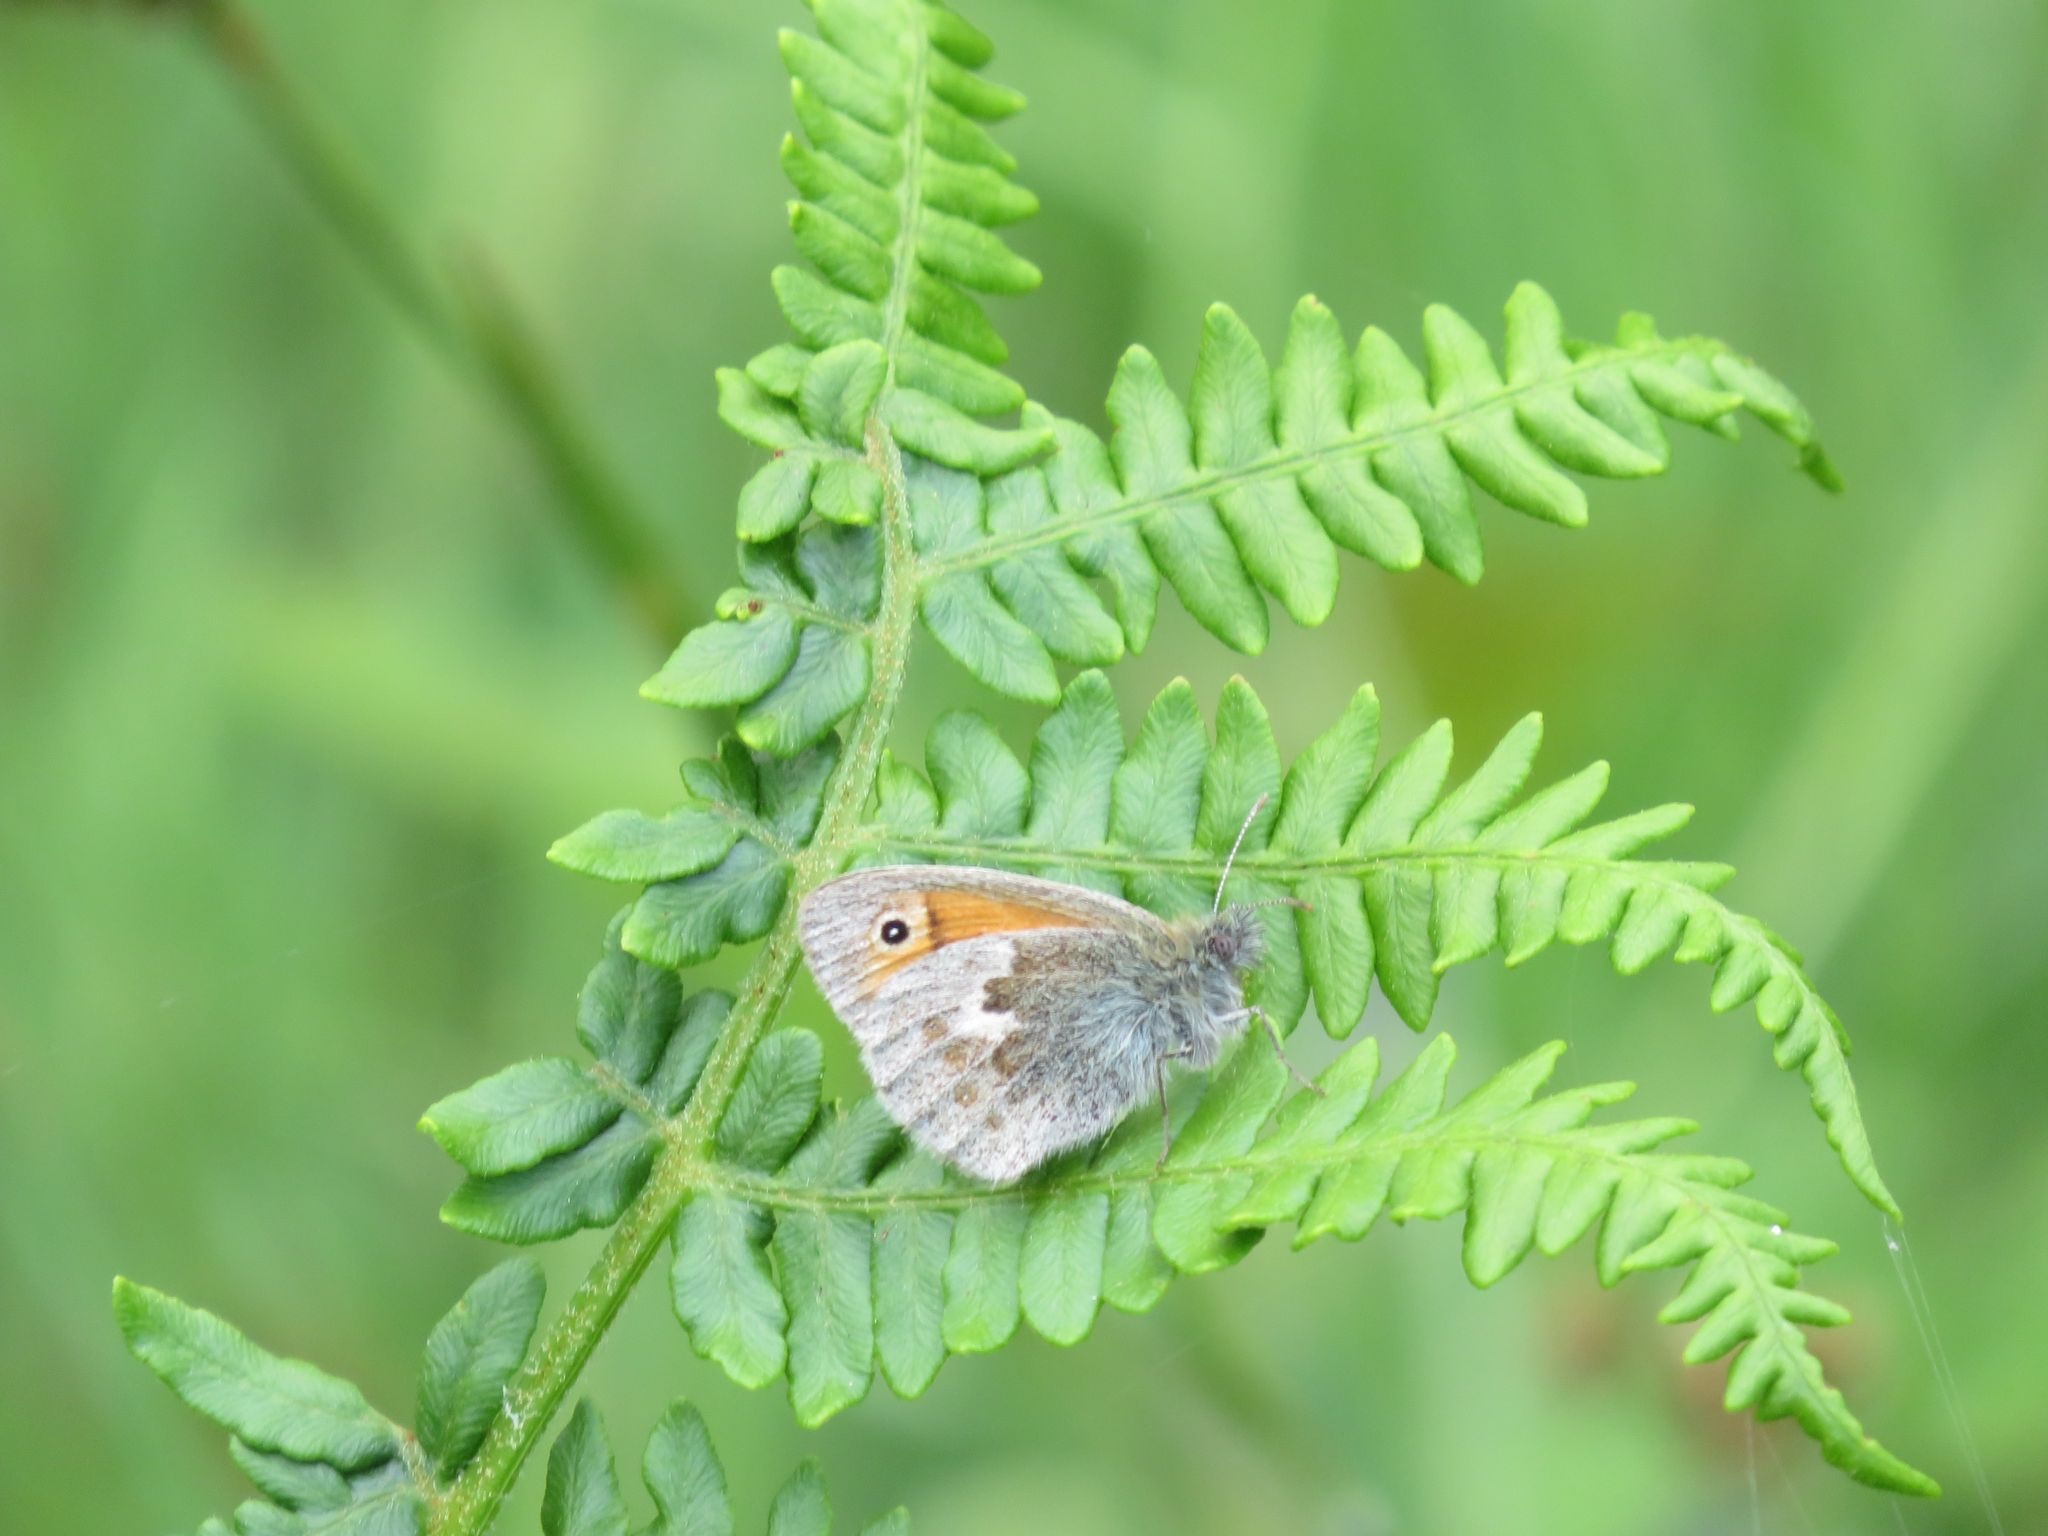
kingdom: Animalia
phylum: Arthropoda
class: Insecta
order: Lepidoptera
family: Nymphalidae
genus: Coenonympha
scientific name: Coenonympha pamphilus
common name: Small heath
